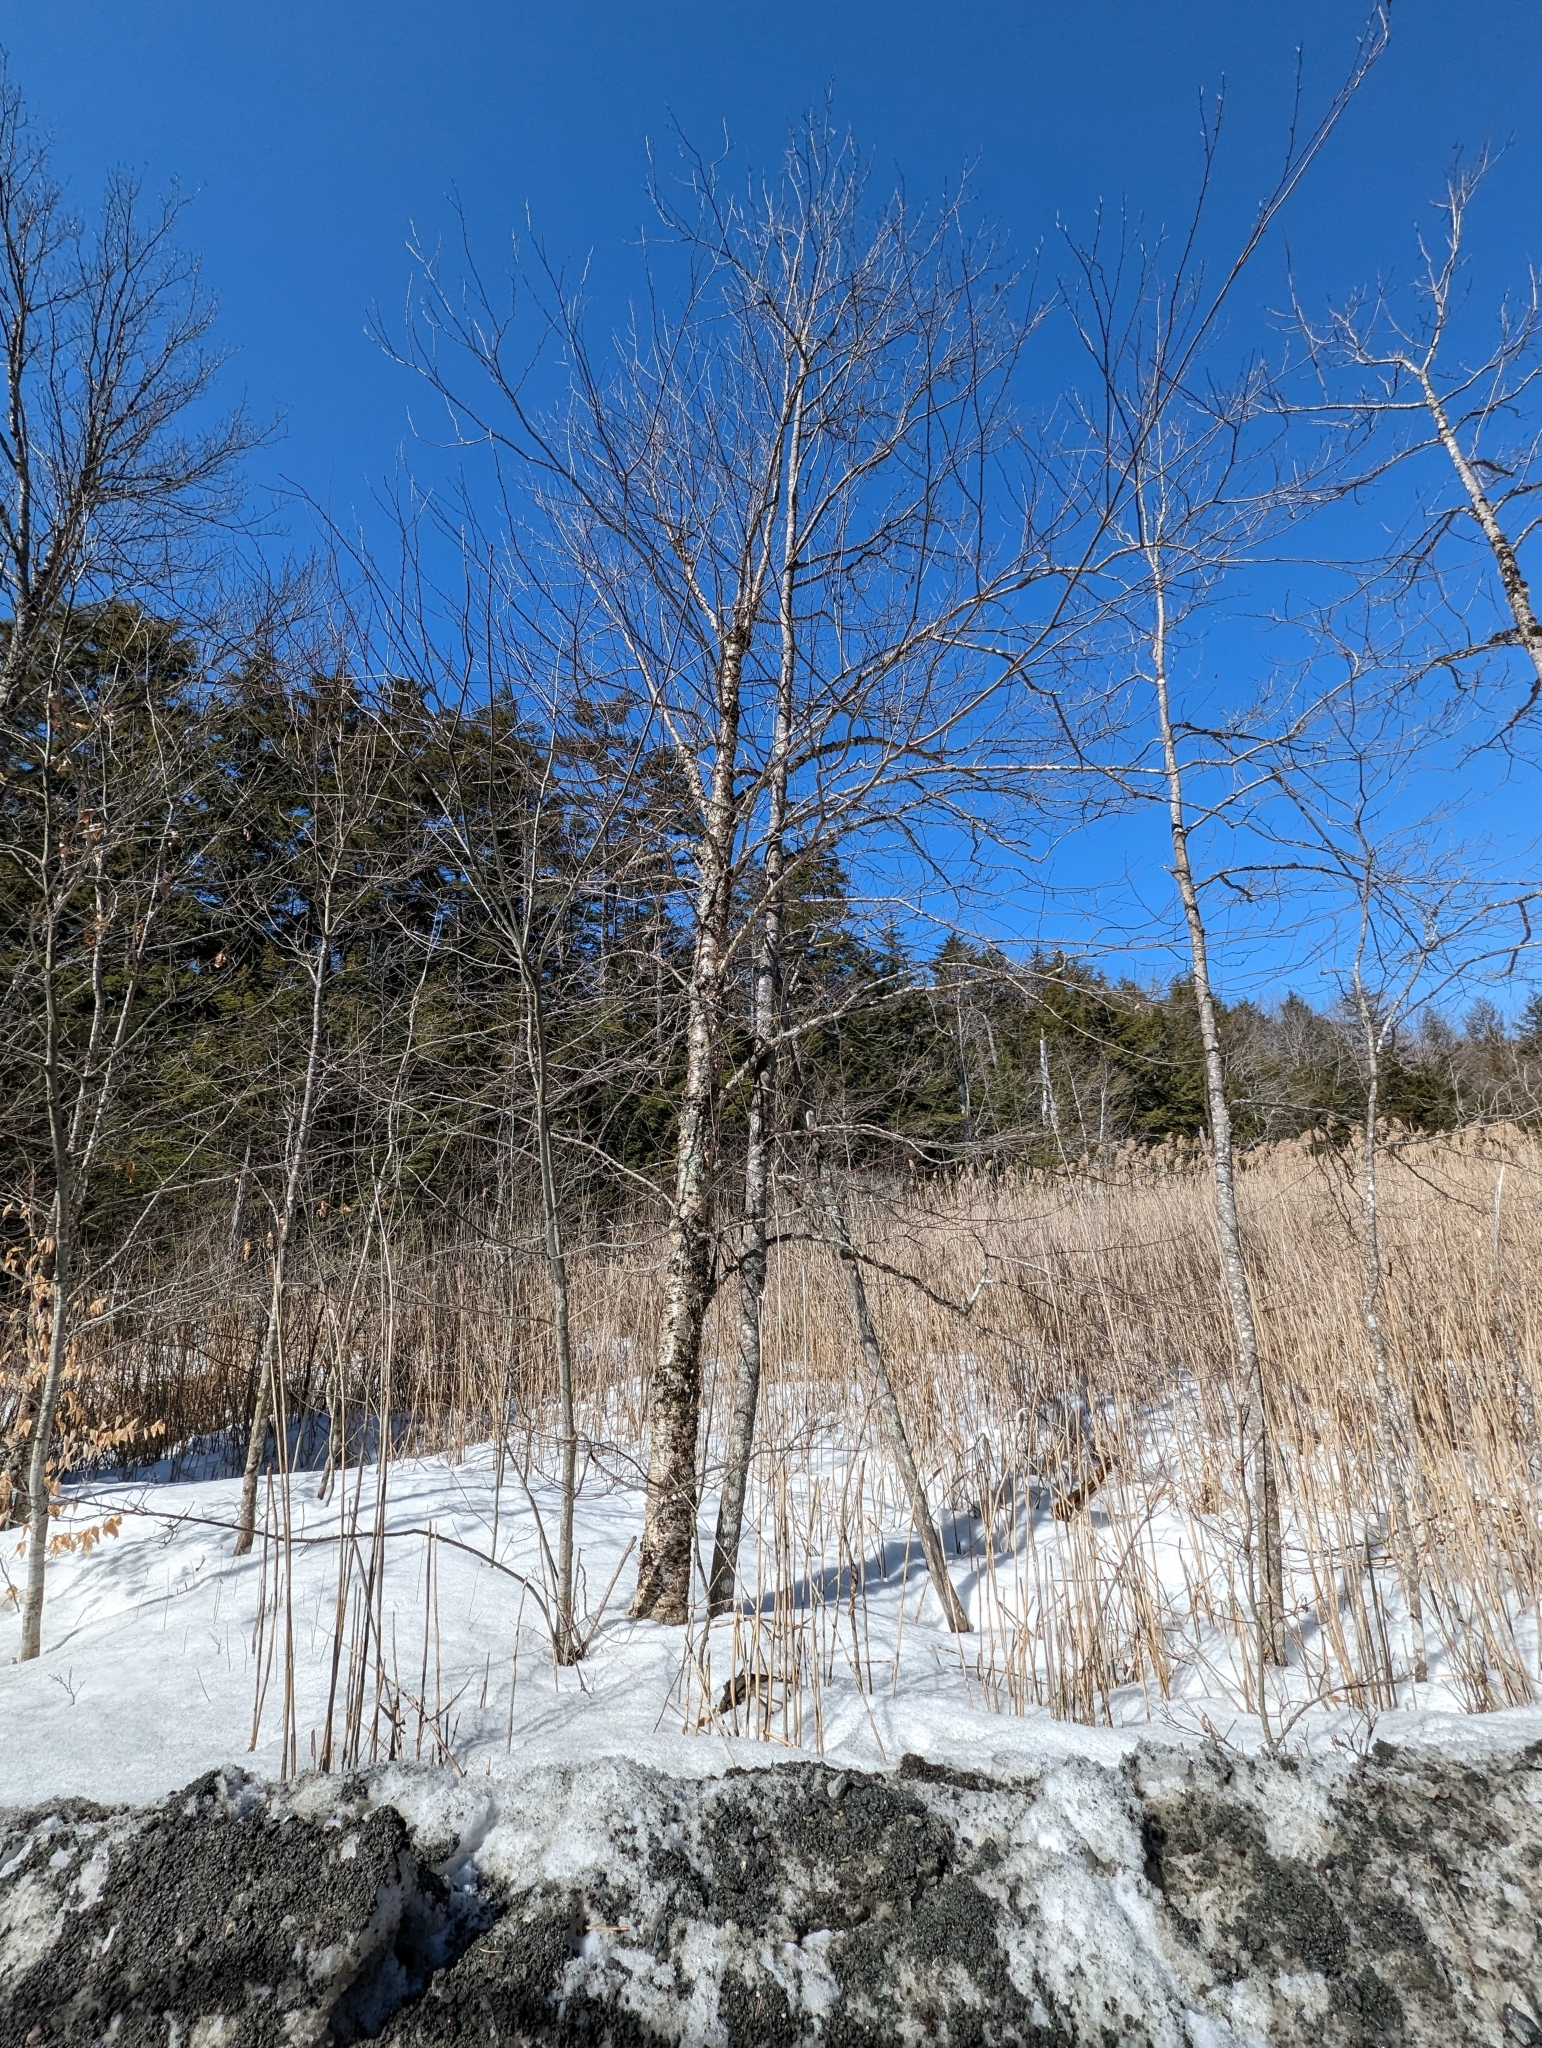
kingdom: Plantae
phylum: Tracheophyta
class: Magnoliopsida
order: Fagales
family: Betulaceae
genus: Betula
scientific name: Betula alleghaniensis
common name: Yellow birch
